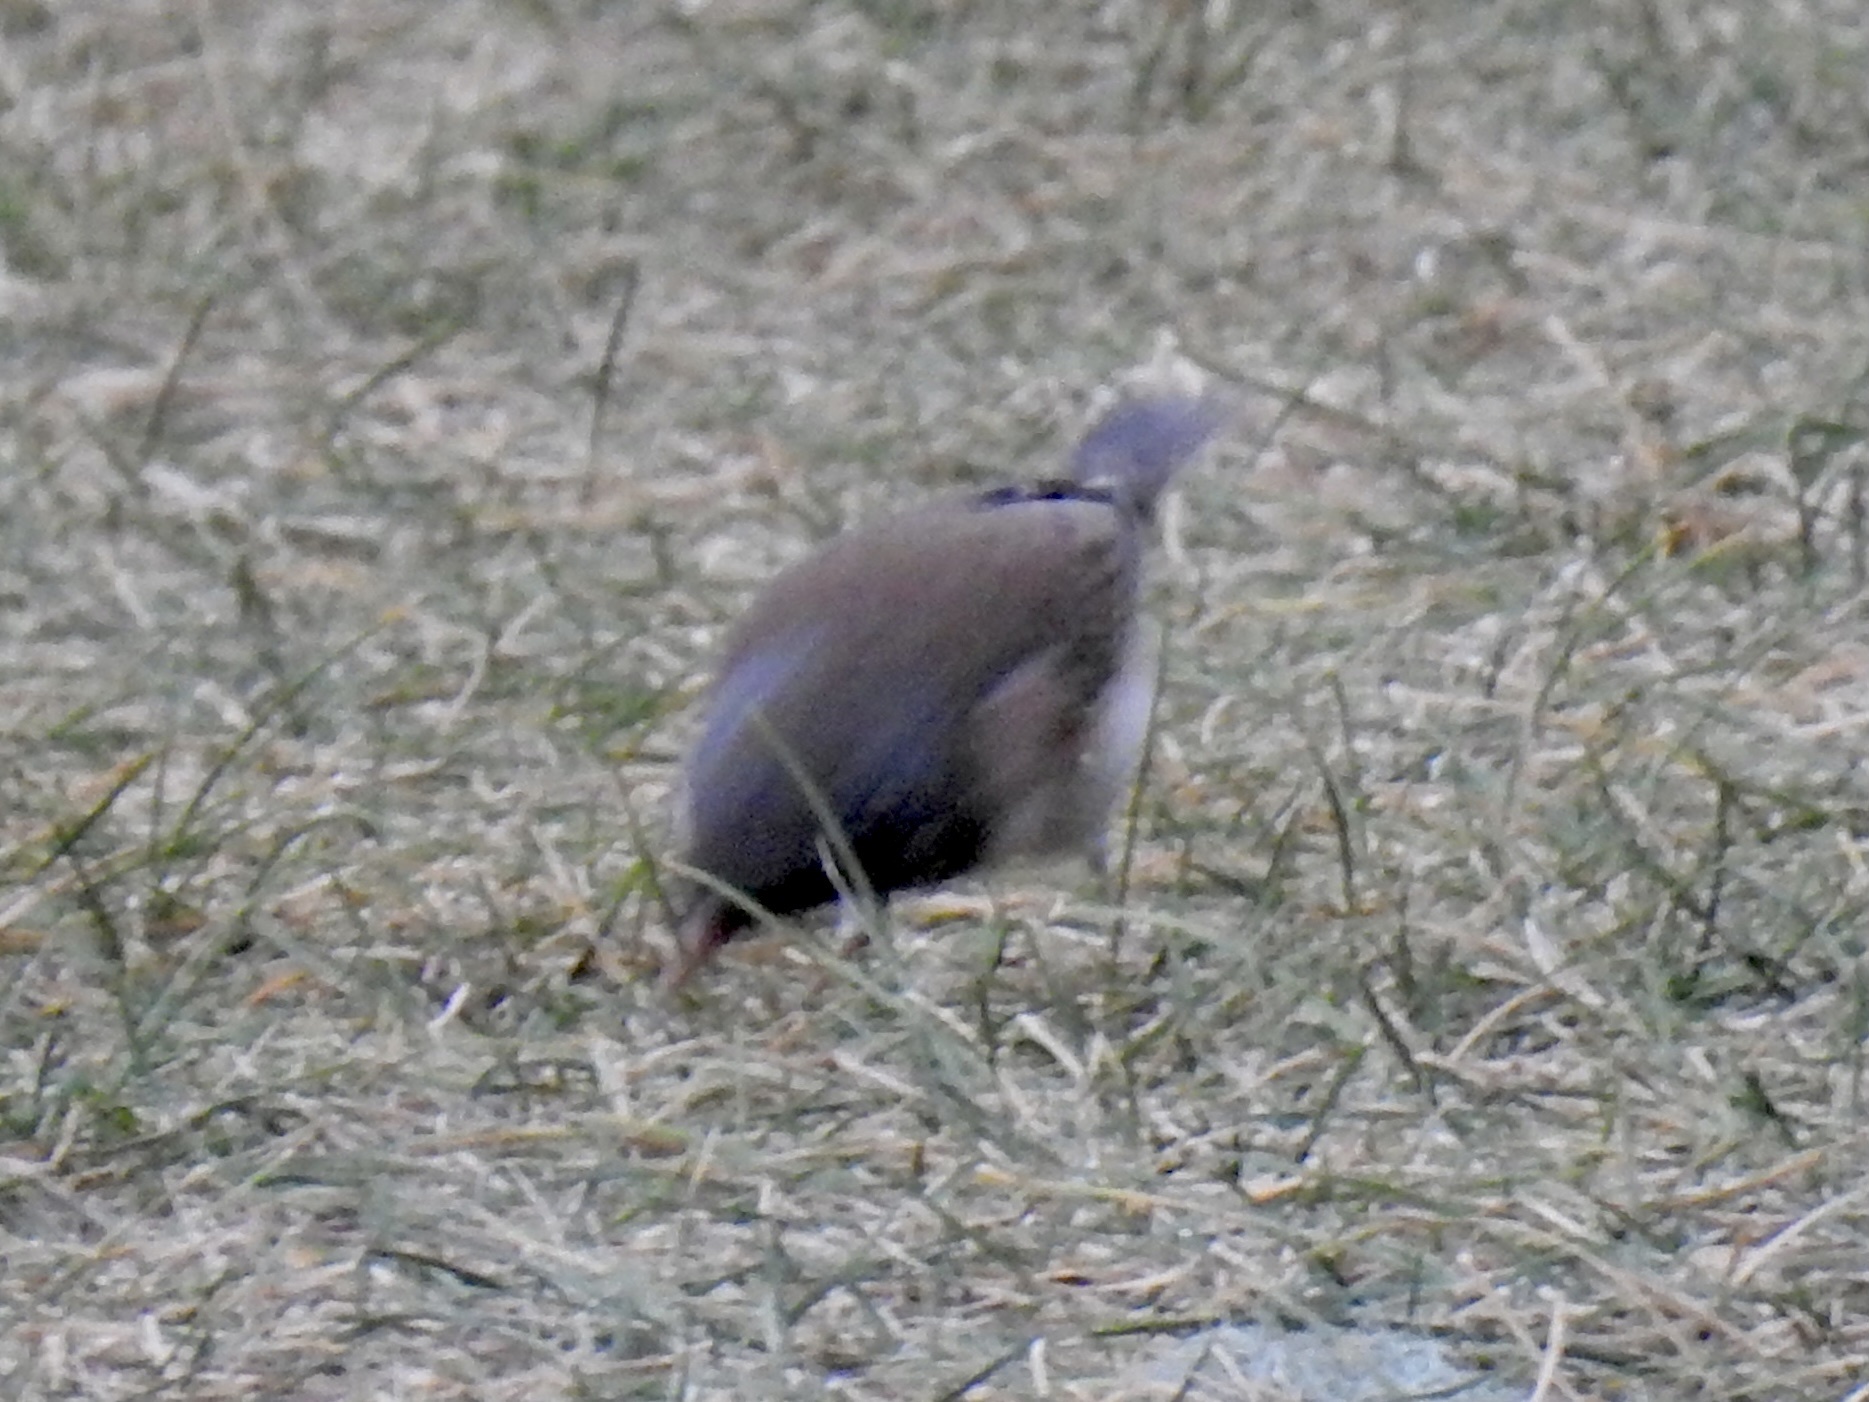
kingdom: Animalia
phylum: Chordata
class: Aves
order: Passeriformes
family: Passerellidae
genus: Junco
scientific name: Junco hyemalis
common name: Dark-eyed junco
